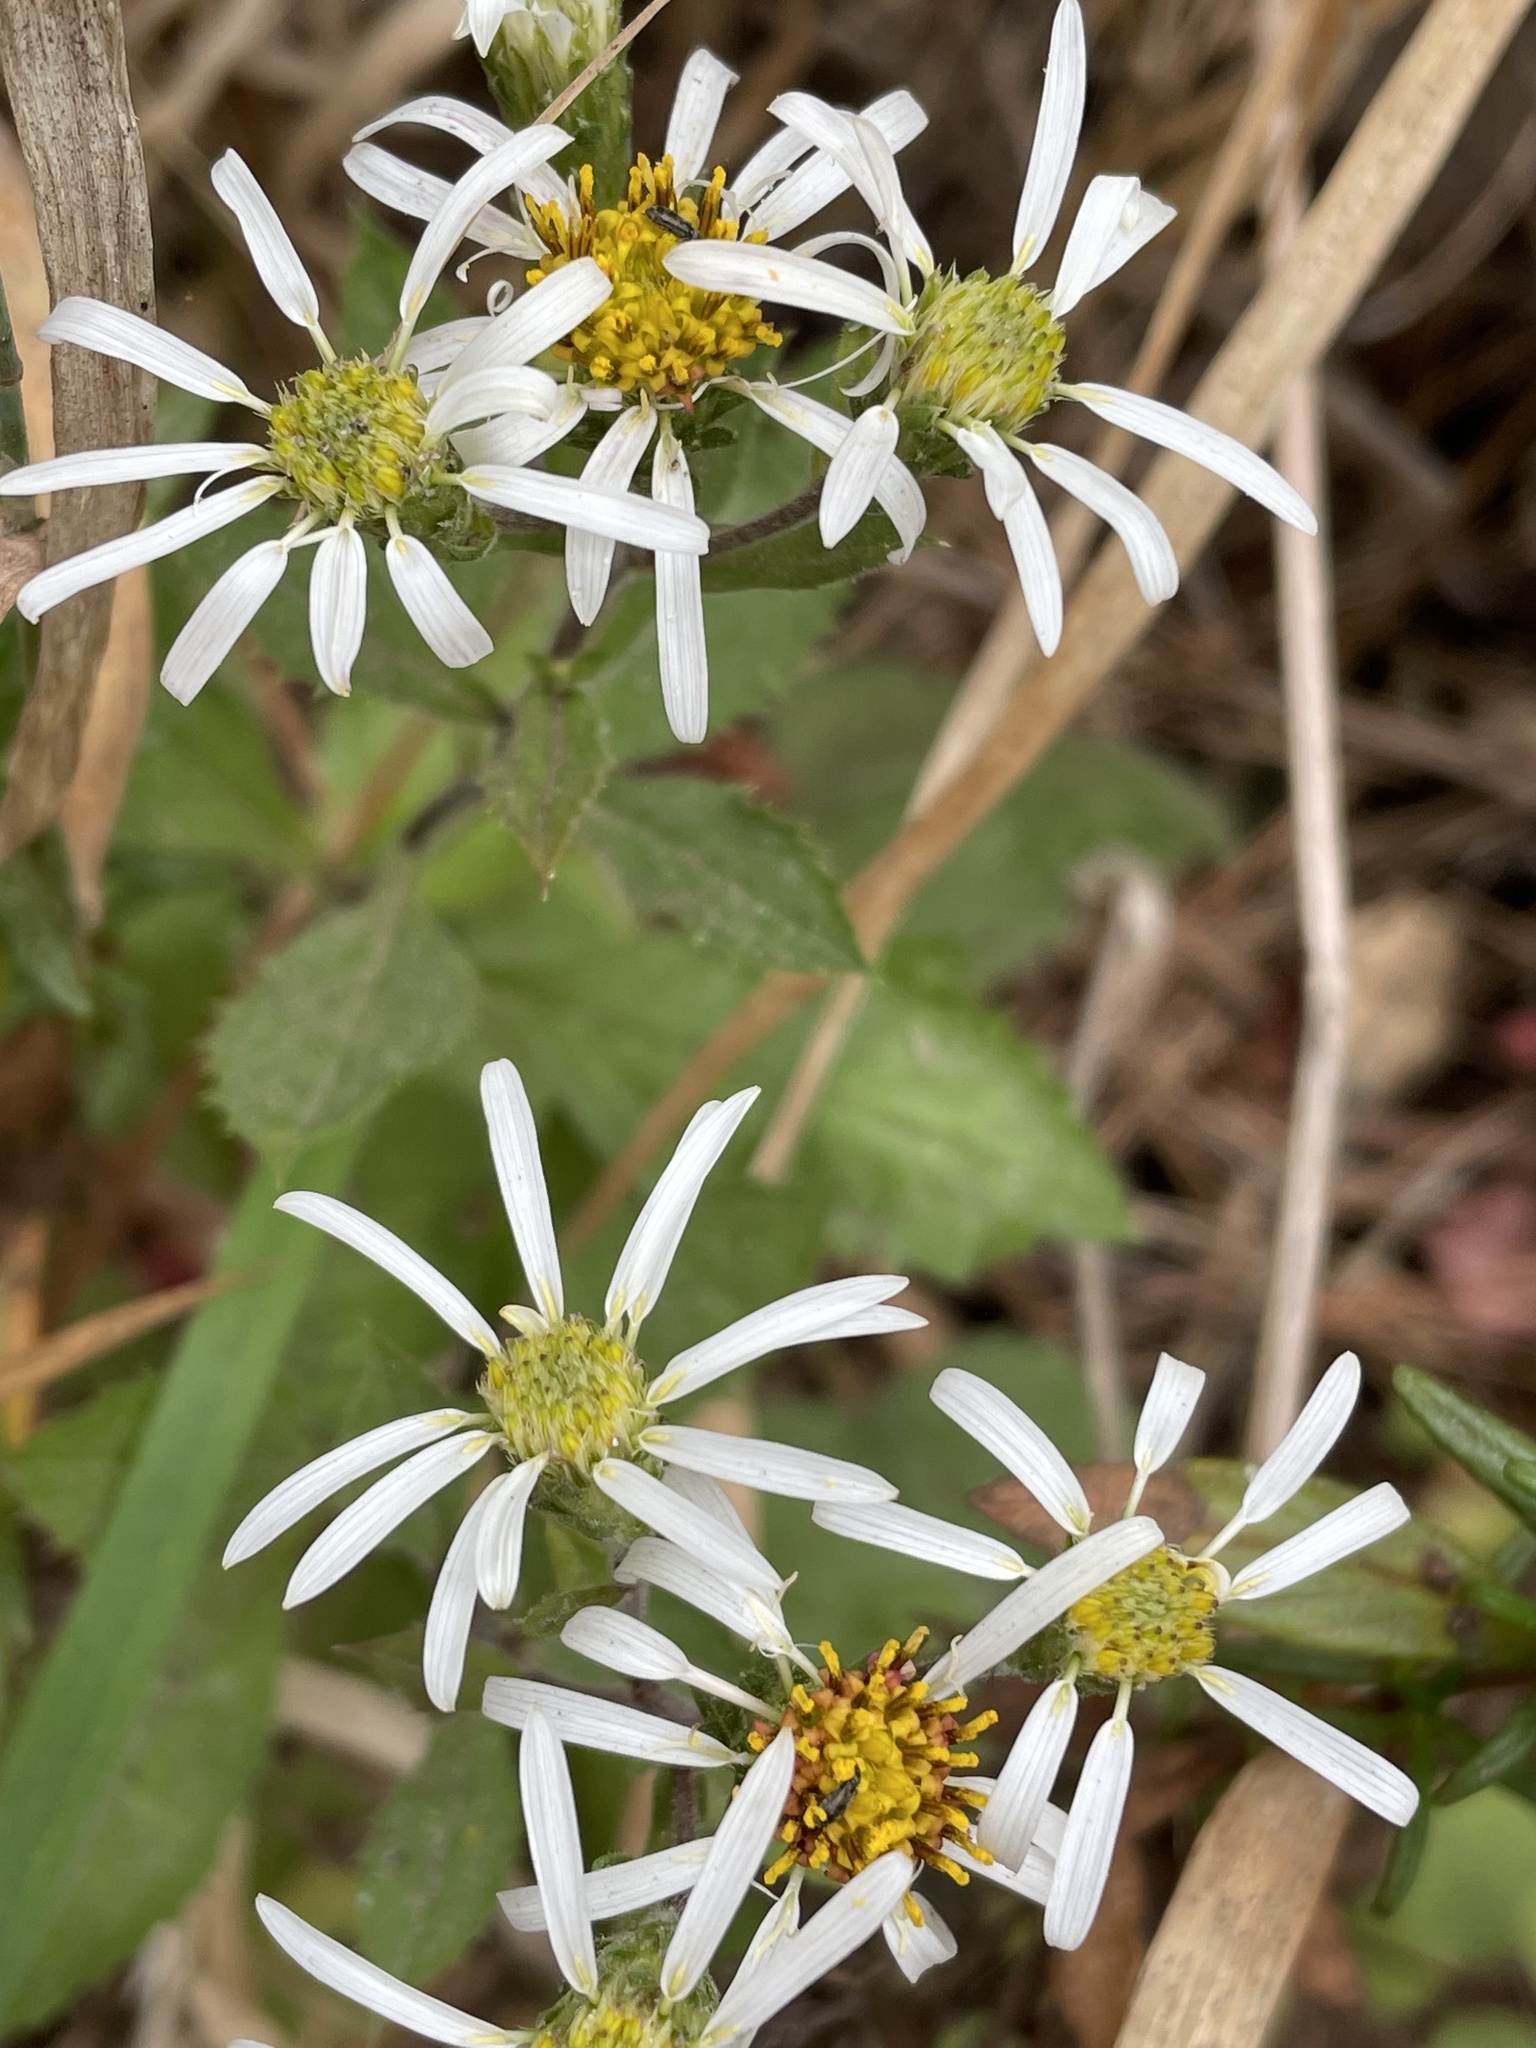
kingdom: Plantae
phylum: Tracheophyta
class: Magnoliopsida
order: Asterales
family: Asteraceae
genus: Eurybia
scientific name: Eurybia radulina
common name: Rough-leaved aster
